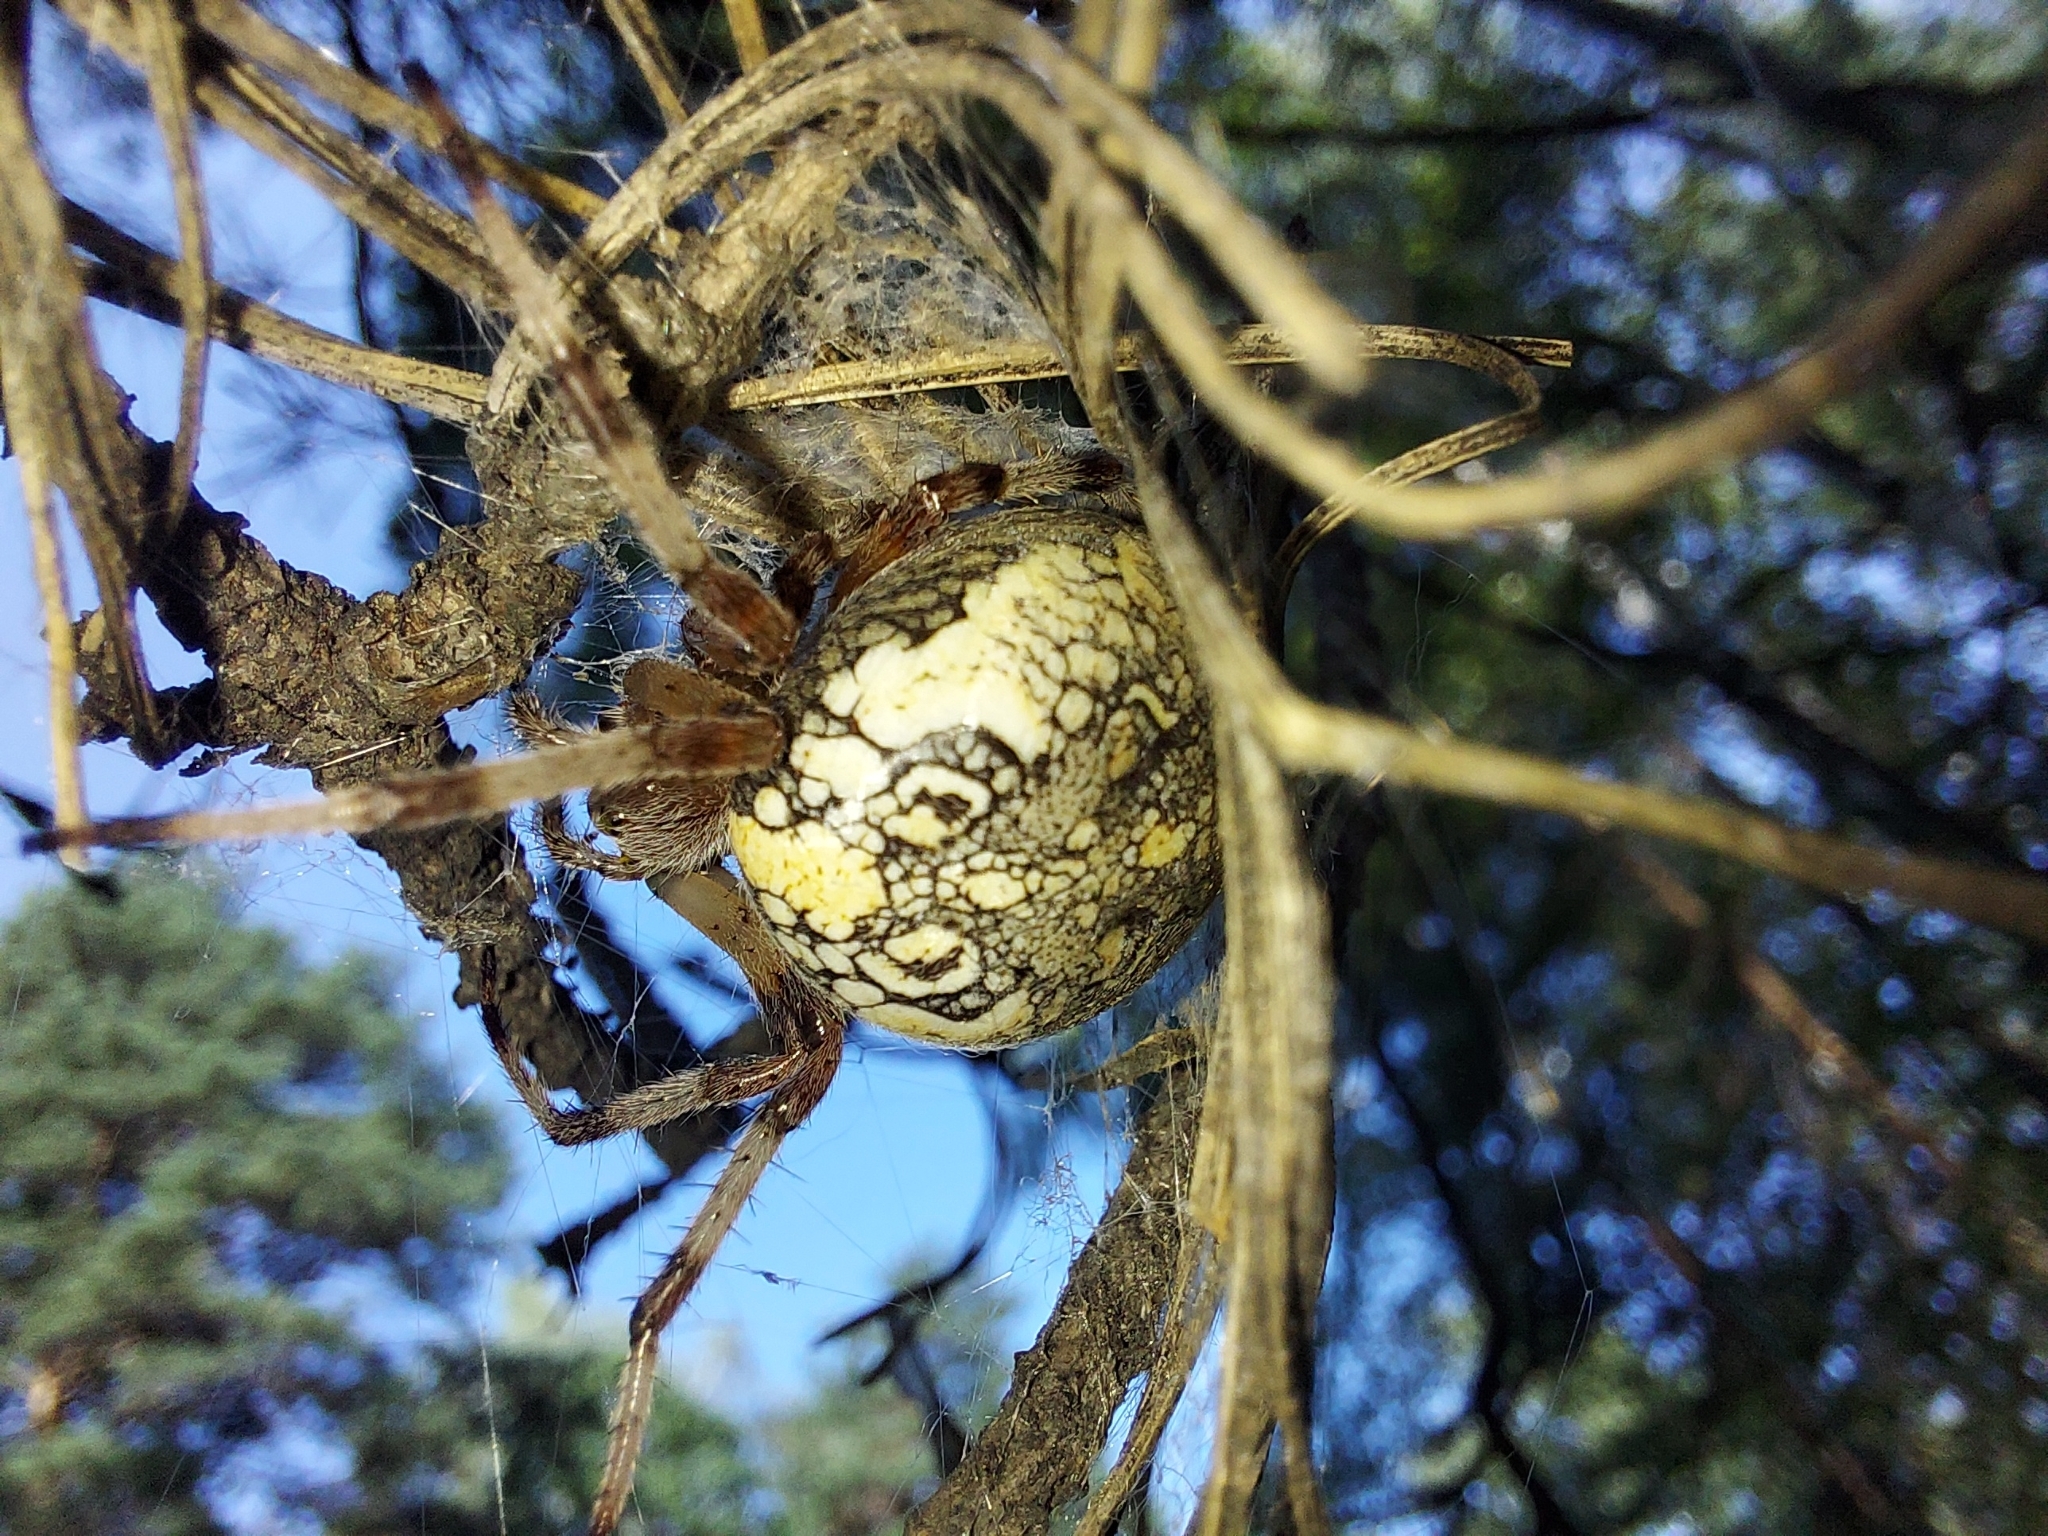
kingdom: Animalia
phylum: Arthropoda
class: Arachnida
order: Araneae
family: Araneidae
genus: Araneus
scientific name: Araneus marmoreus
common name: Marbled orbweaver
